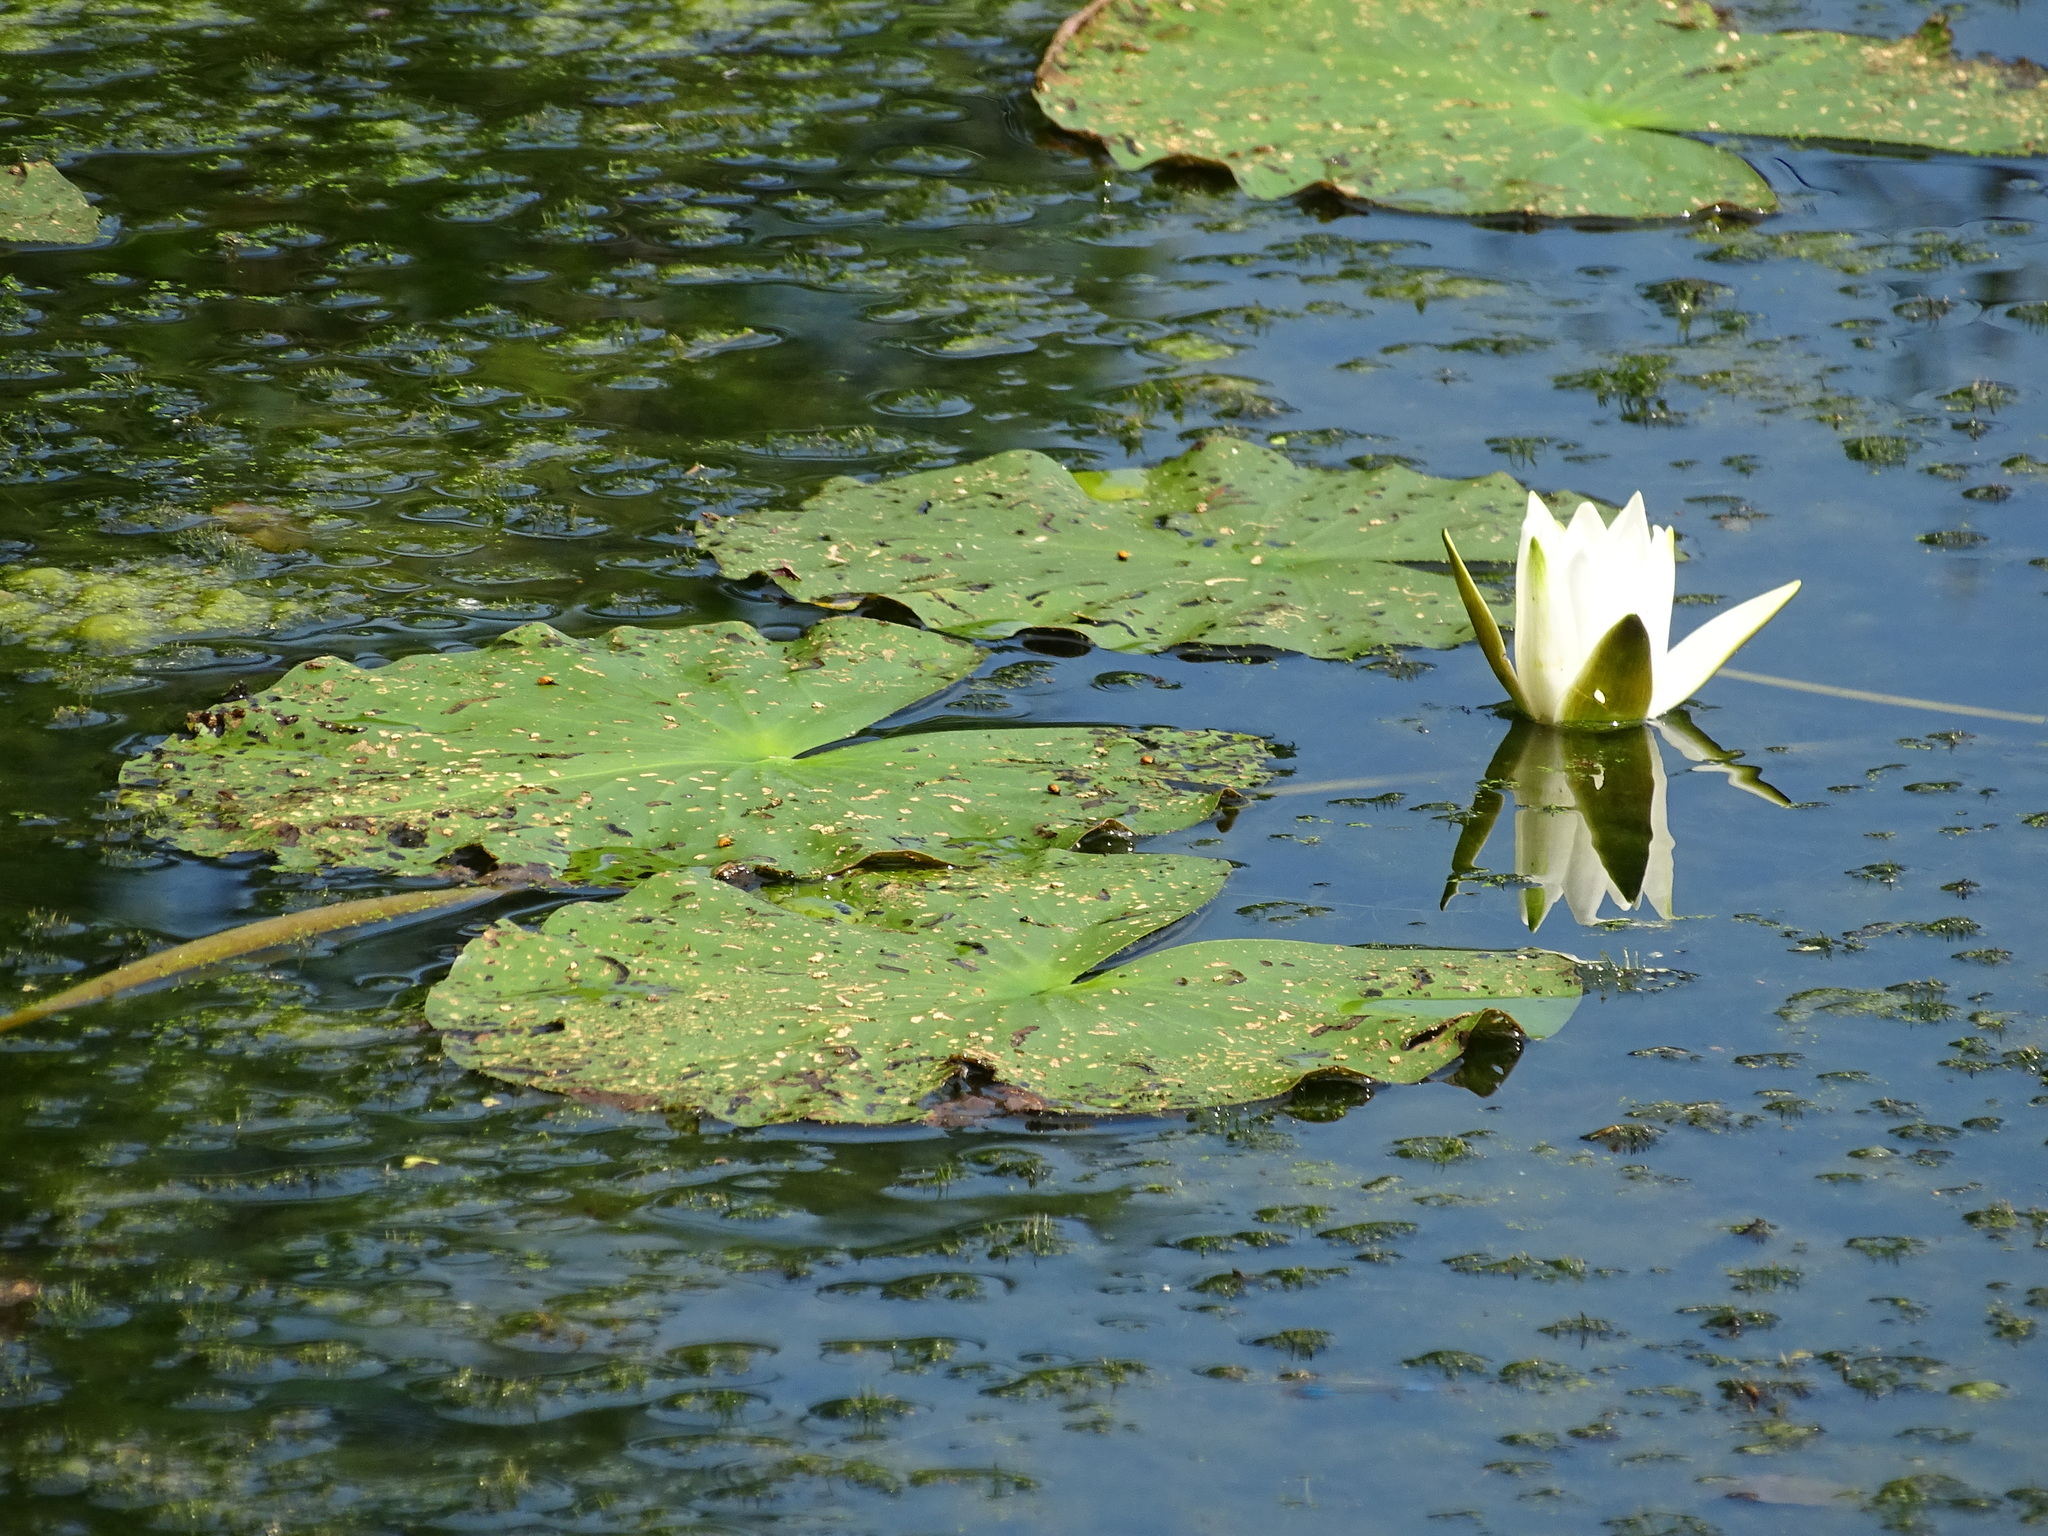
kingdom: Plantae
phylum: Tracheophyta
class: Magnoliopsida
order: Nymphaeales
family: Nymphaeaceae
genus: Nymphaea
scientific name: Nymphaea alba
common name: White water-lily
